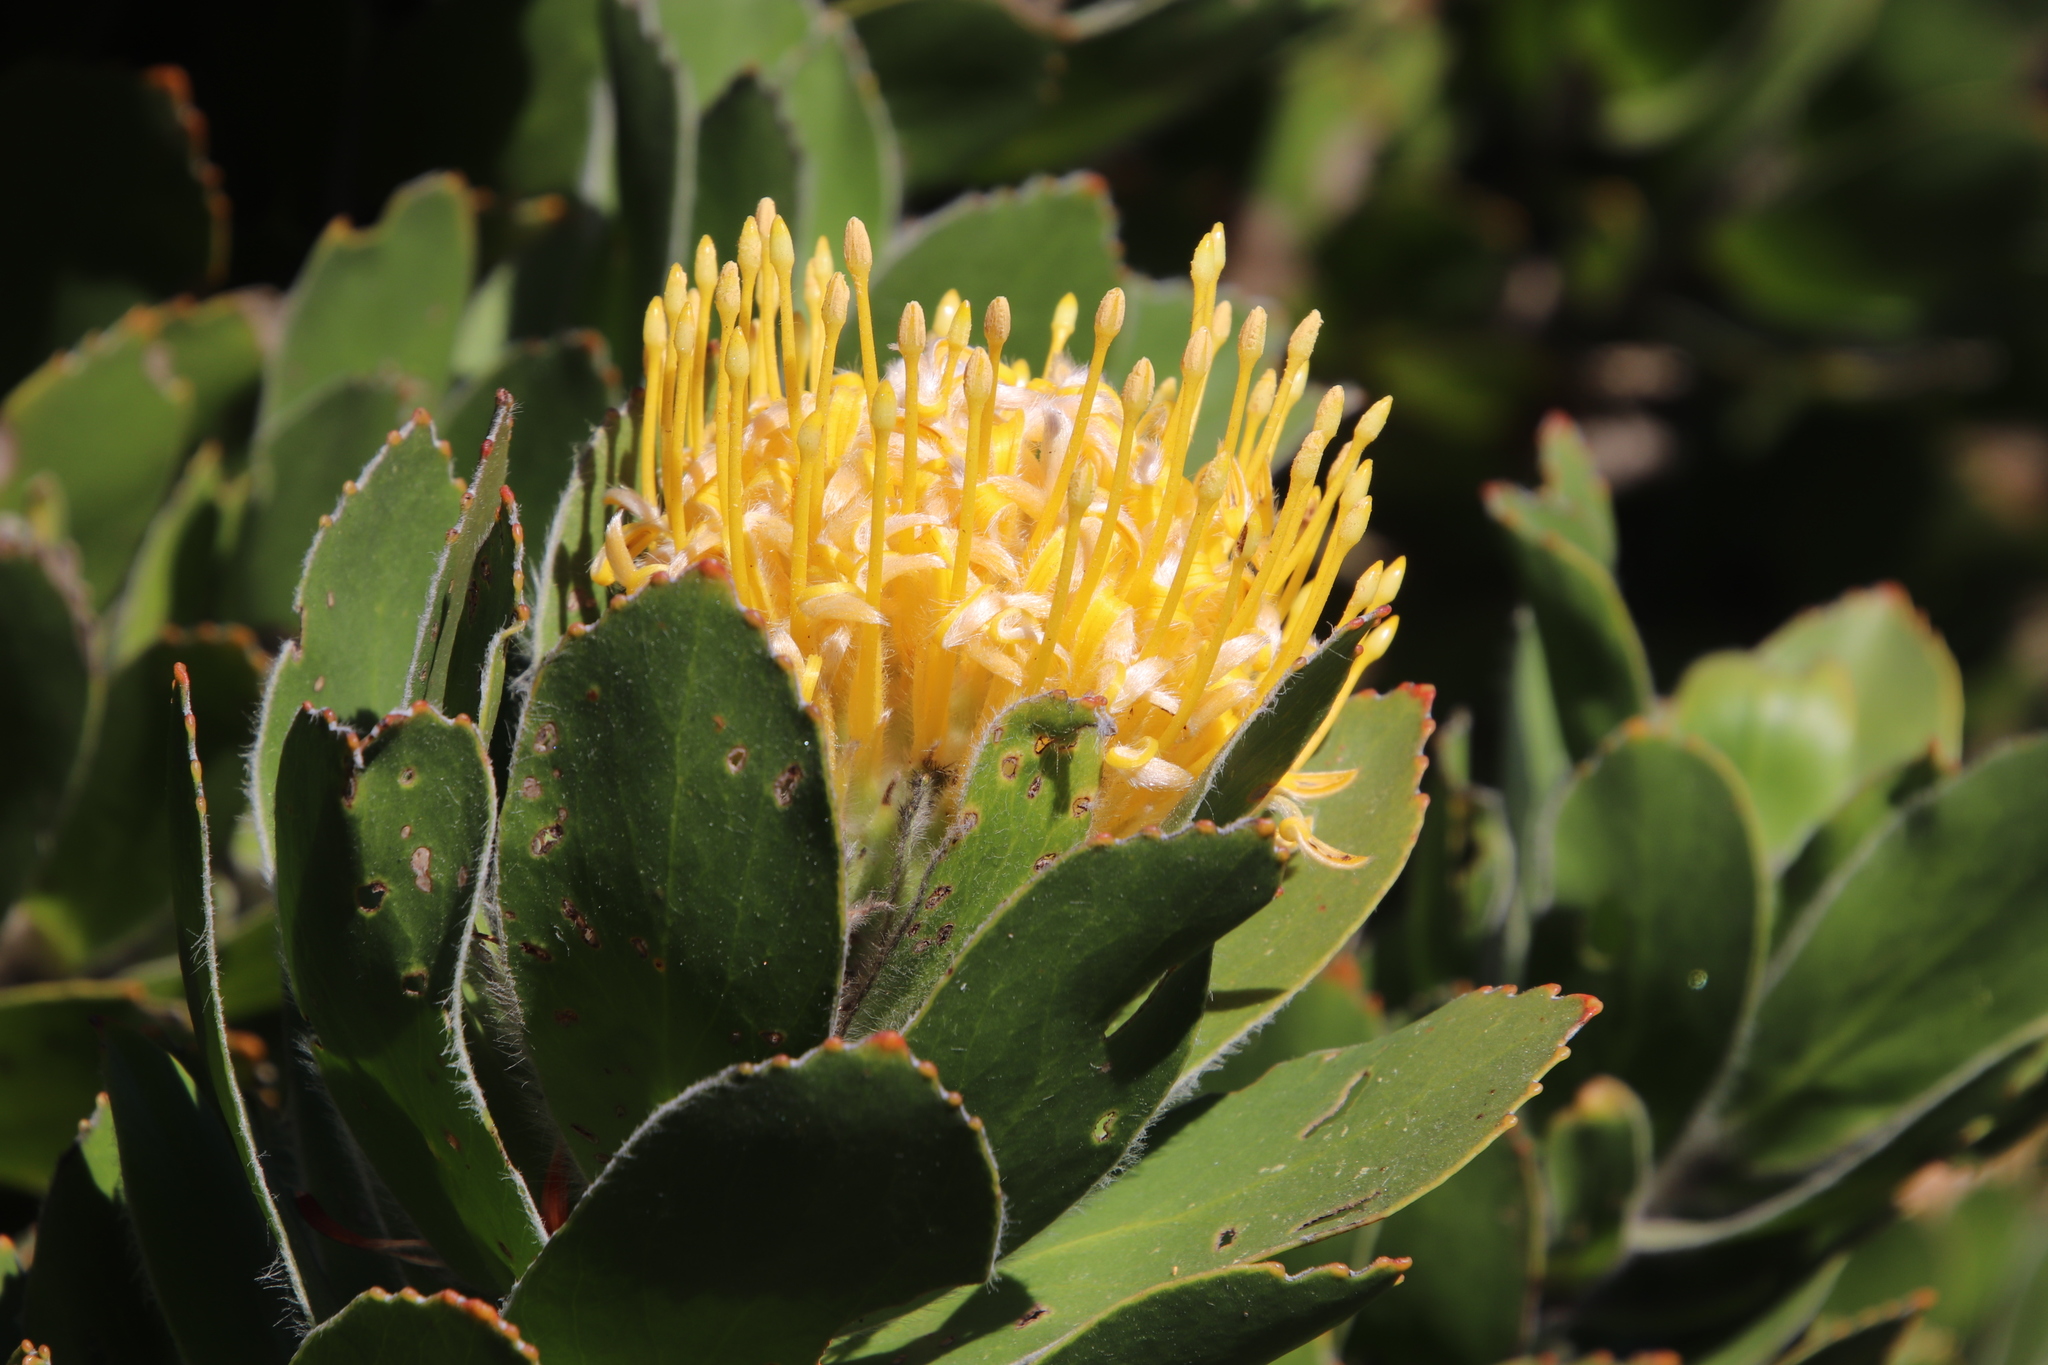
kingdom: Plantae
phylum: Tracheophyta
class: Magnoliopsida
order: Proteales
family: Proteaceae
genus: Leucospermum
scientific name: Leucospermum conocarpodendron
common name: Tree pincushion
